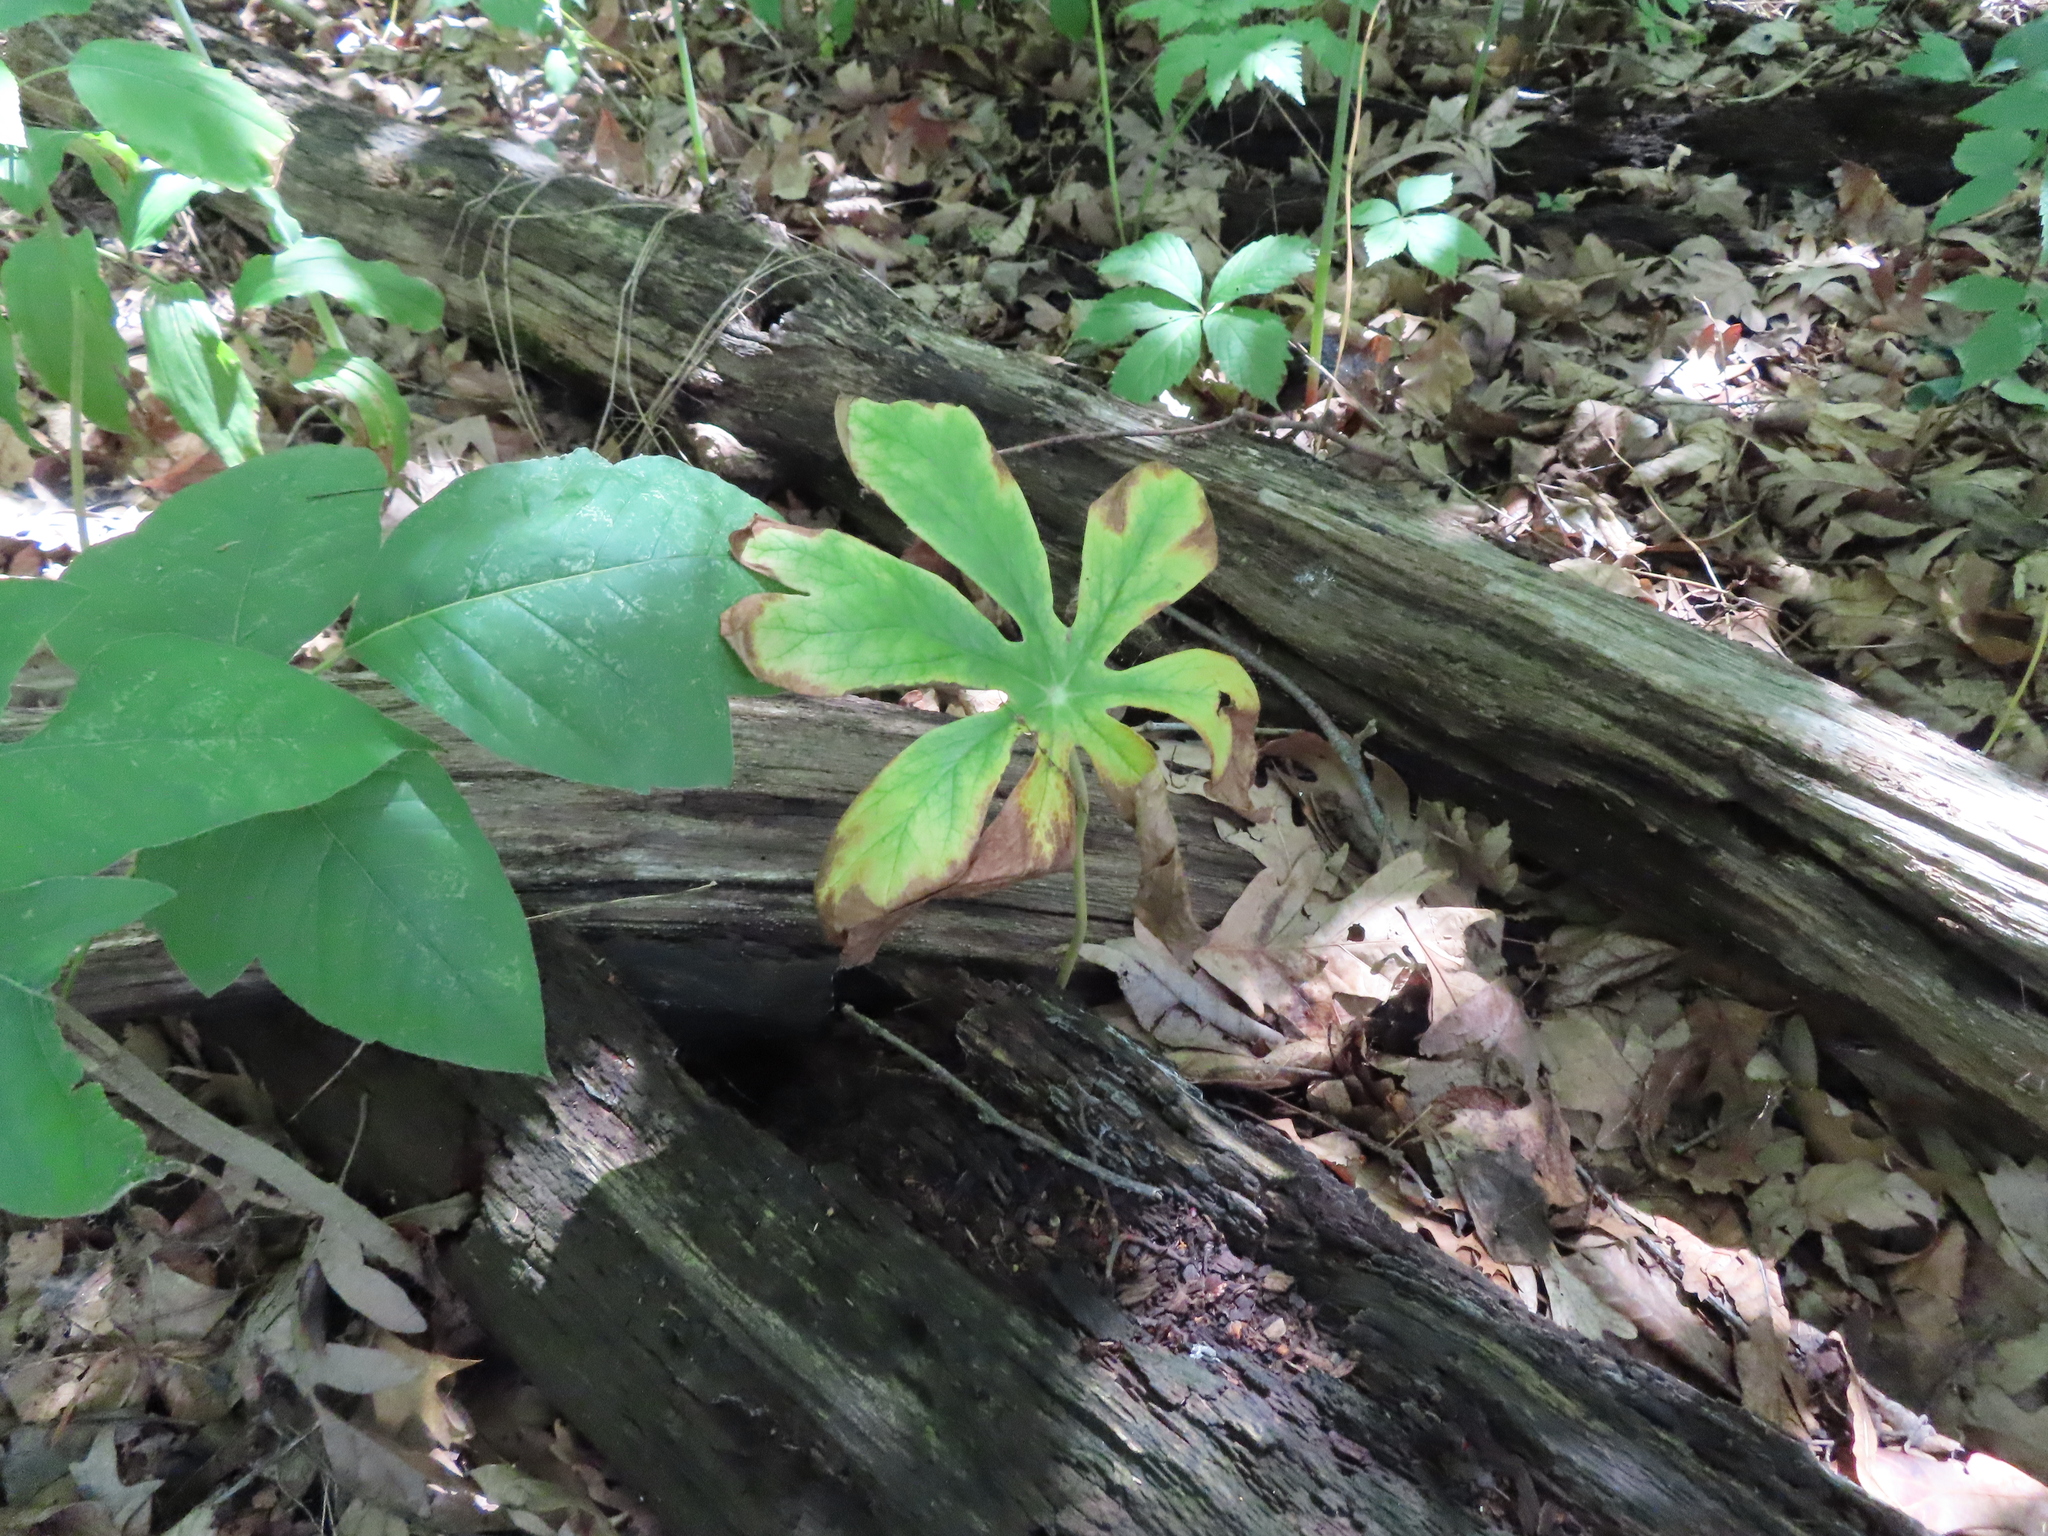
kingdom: Plantae
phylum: Tracheophyta
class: Magnoliopsida
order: Ranunculales
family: Berberidaceae
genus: Podophyllum
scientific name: Podophyllum peltatum
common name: Wild mandrake
